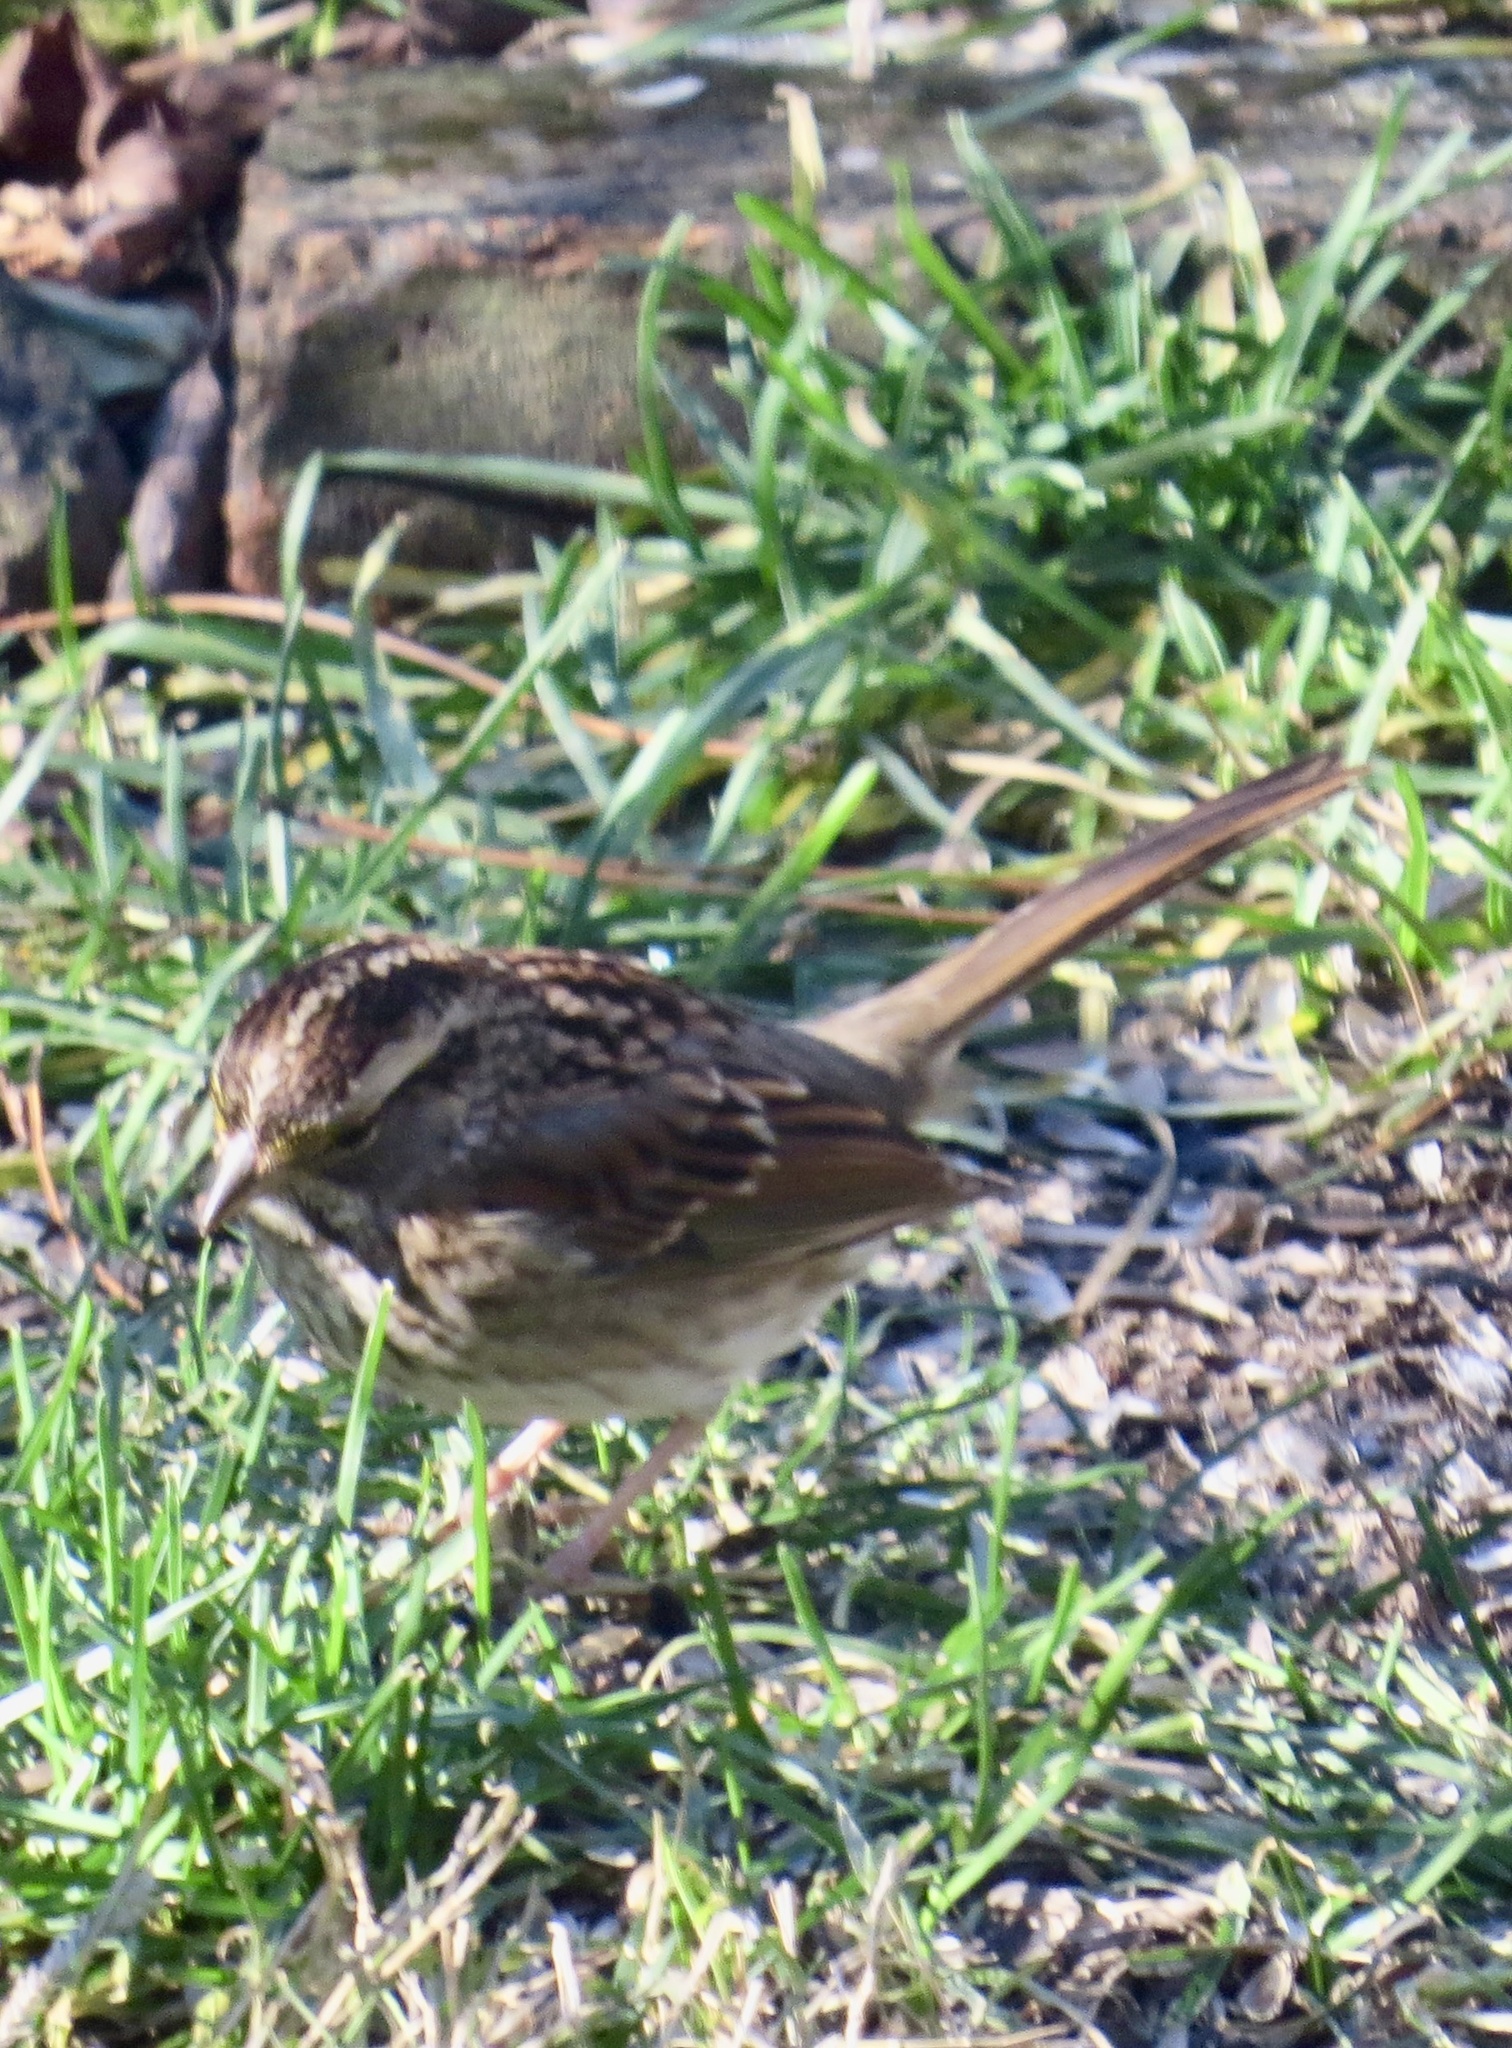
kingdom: Animalia
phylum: Chordata
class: Aves
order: Passeriformes
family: Passerellidae
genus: Zonotrichia
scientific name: Zonotrichia albicollis
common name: White-throated sparrow
